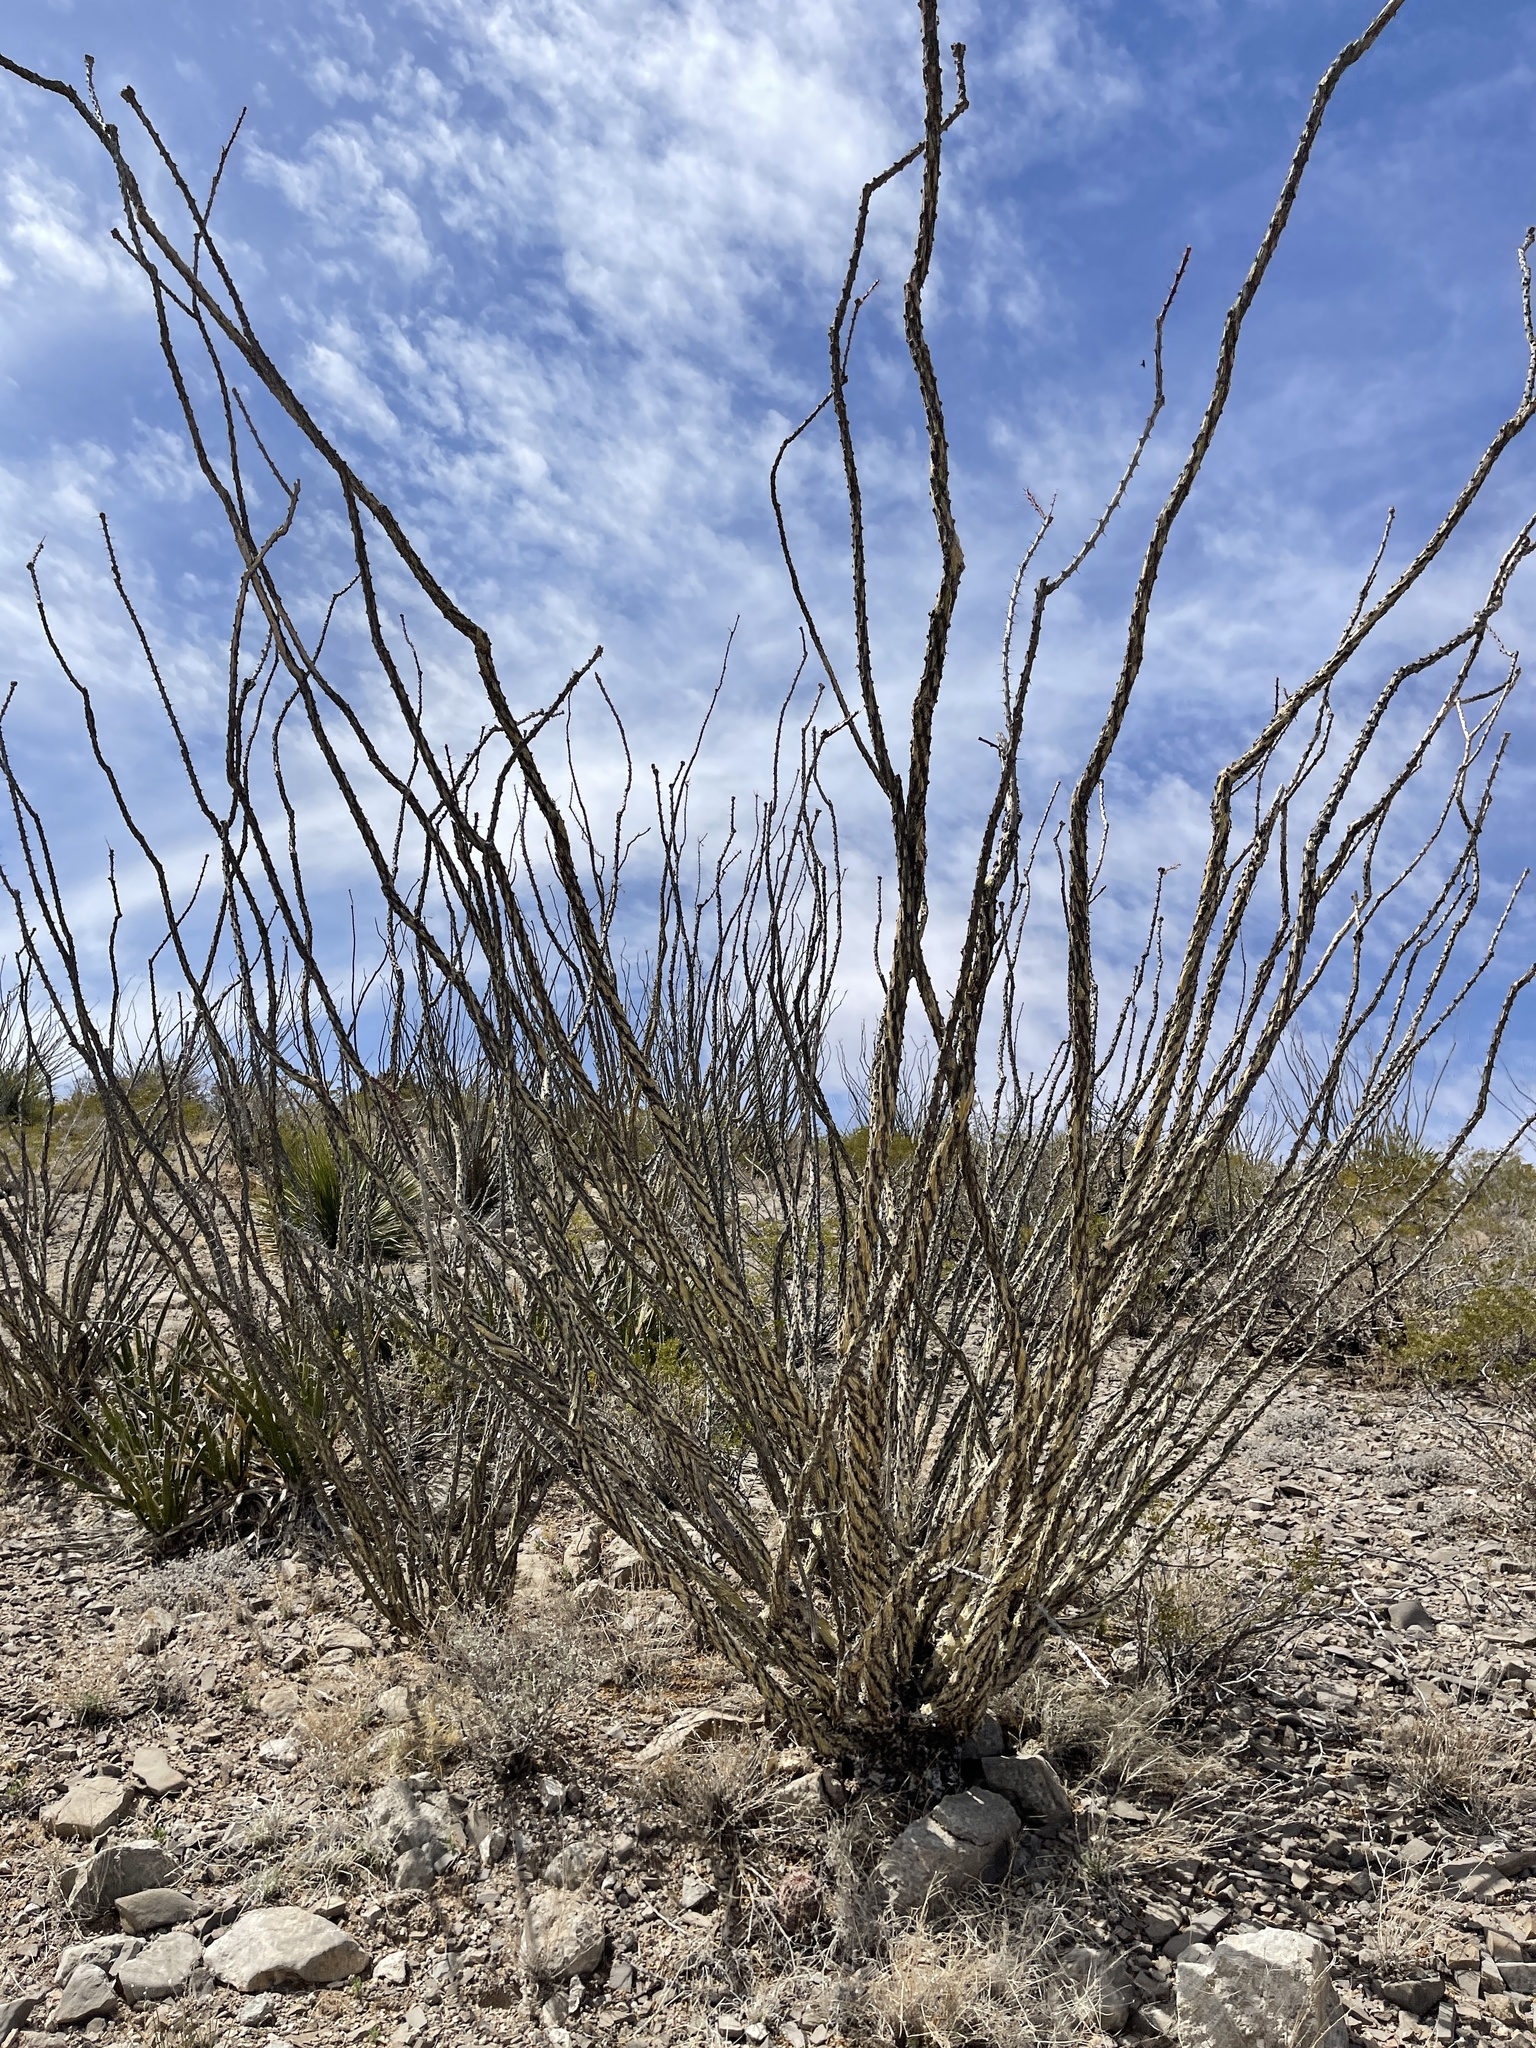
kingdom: Plantae
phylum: Tracheophyta
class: Magnoliopsida
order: Ericales
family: Fouquieriaceae
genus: Fouquieria
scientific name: Fouquieria splendens
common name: Vine-cactus
